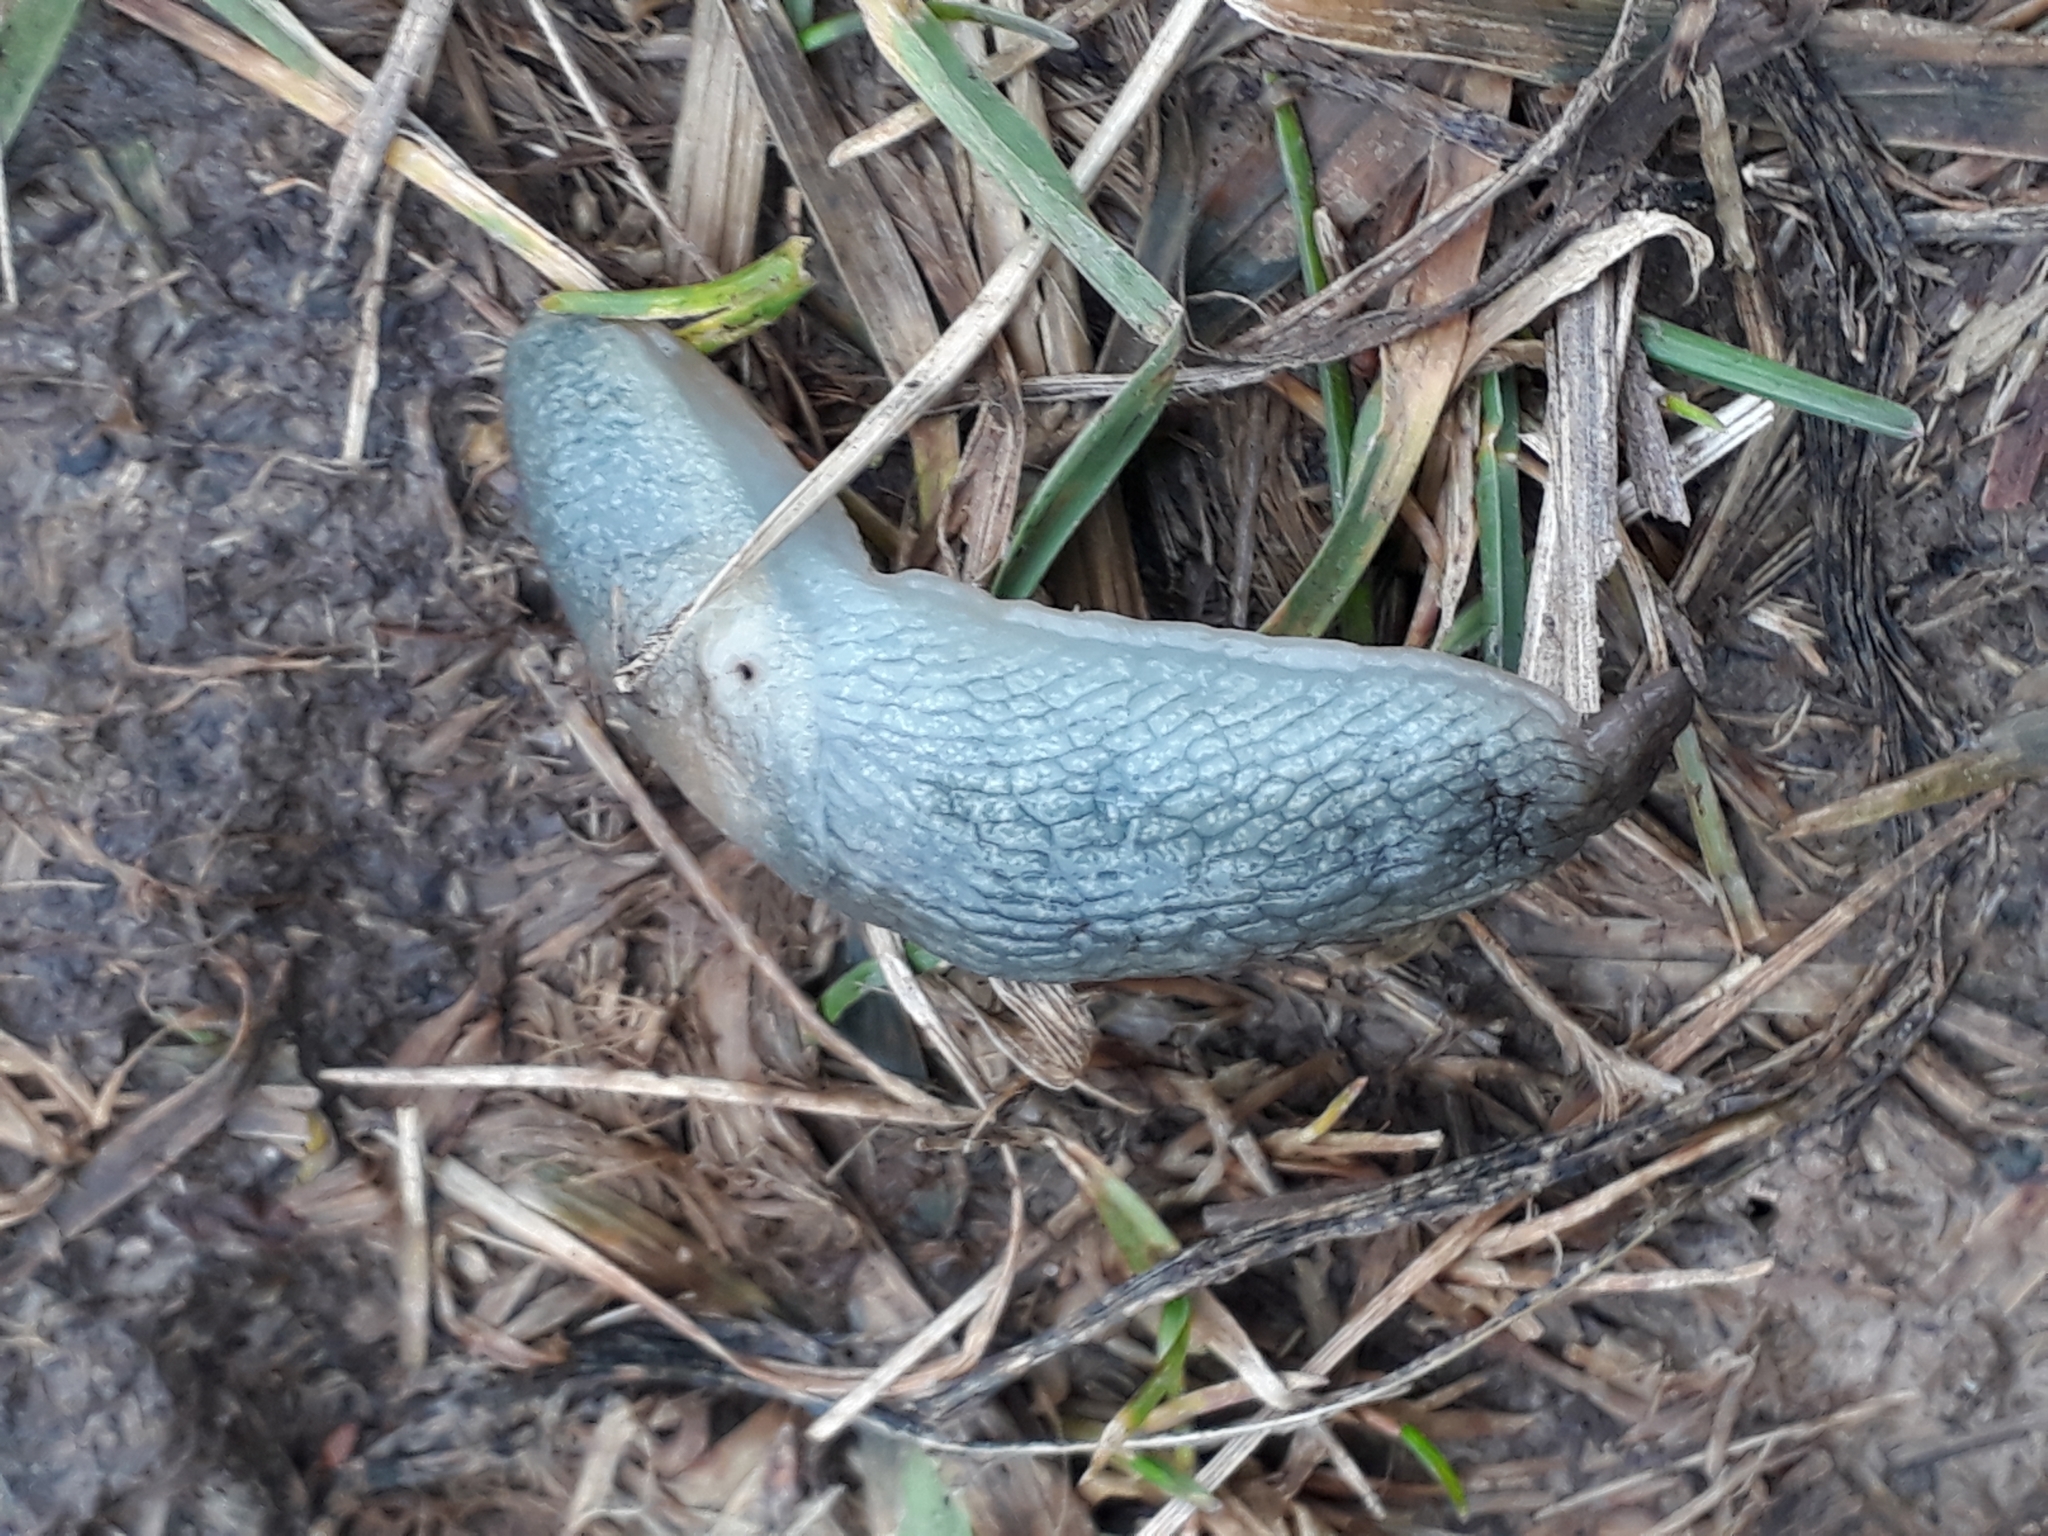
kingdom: Animalia
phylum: Mollusca
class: Gastropoda
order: Stylommatophora
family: Agriolimacidae
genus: Krynickillus
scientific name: Krynickillus melanocephalus
